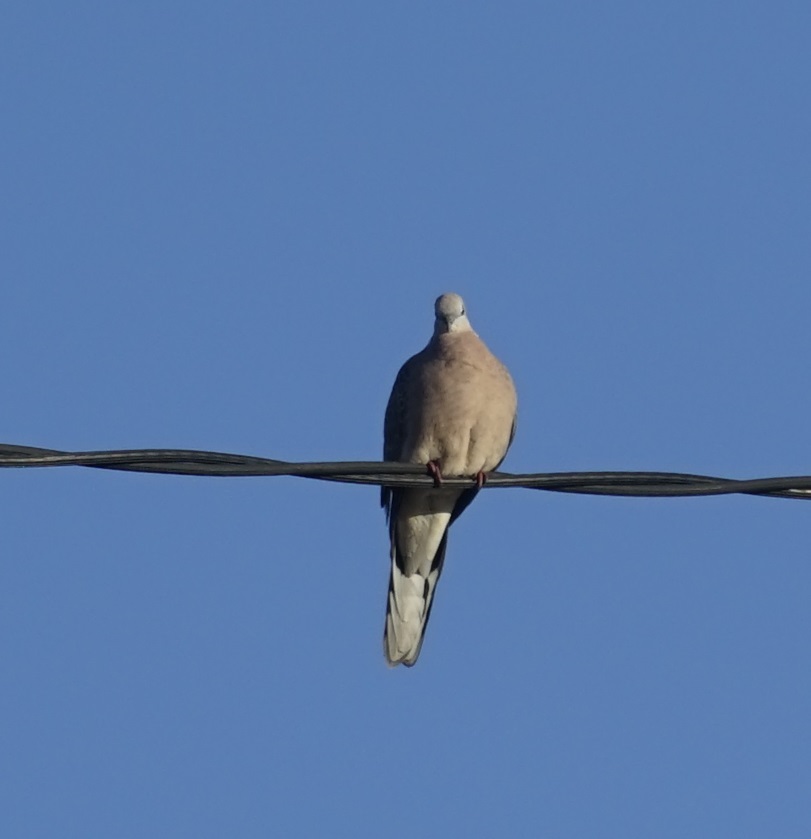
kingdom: Animalia
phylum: Chordata
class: Aves
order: Columbiformes
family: Columbidae
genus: Spilopelia
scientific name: Spilopelia chinensis
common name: Spotted dove
